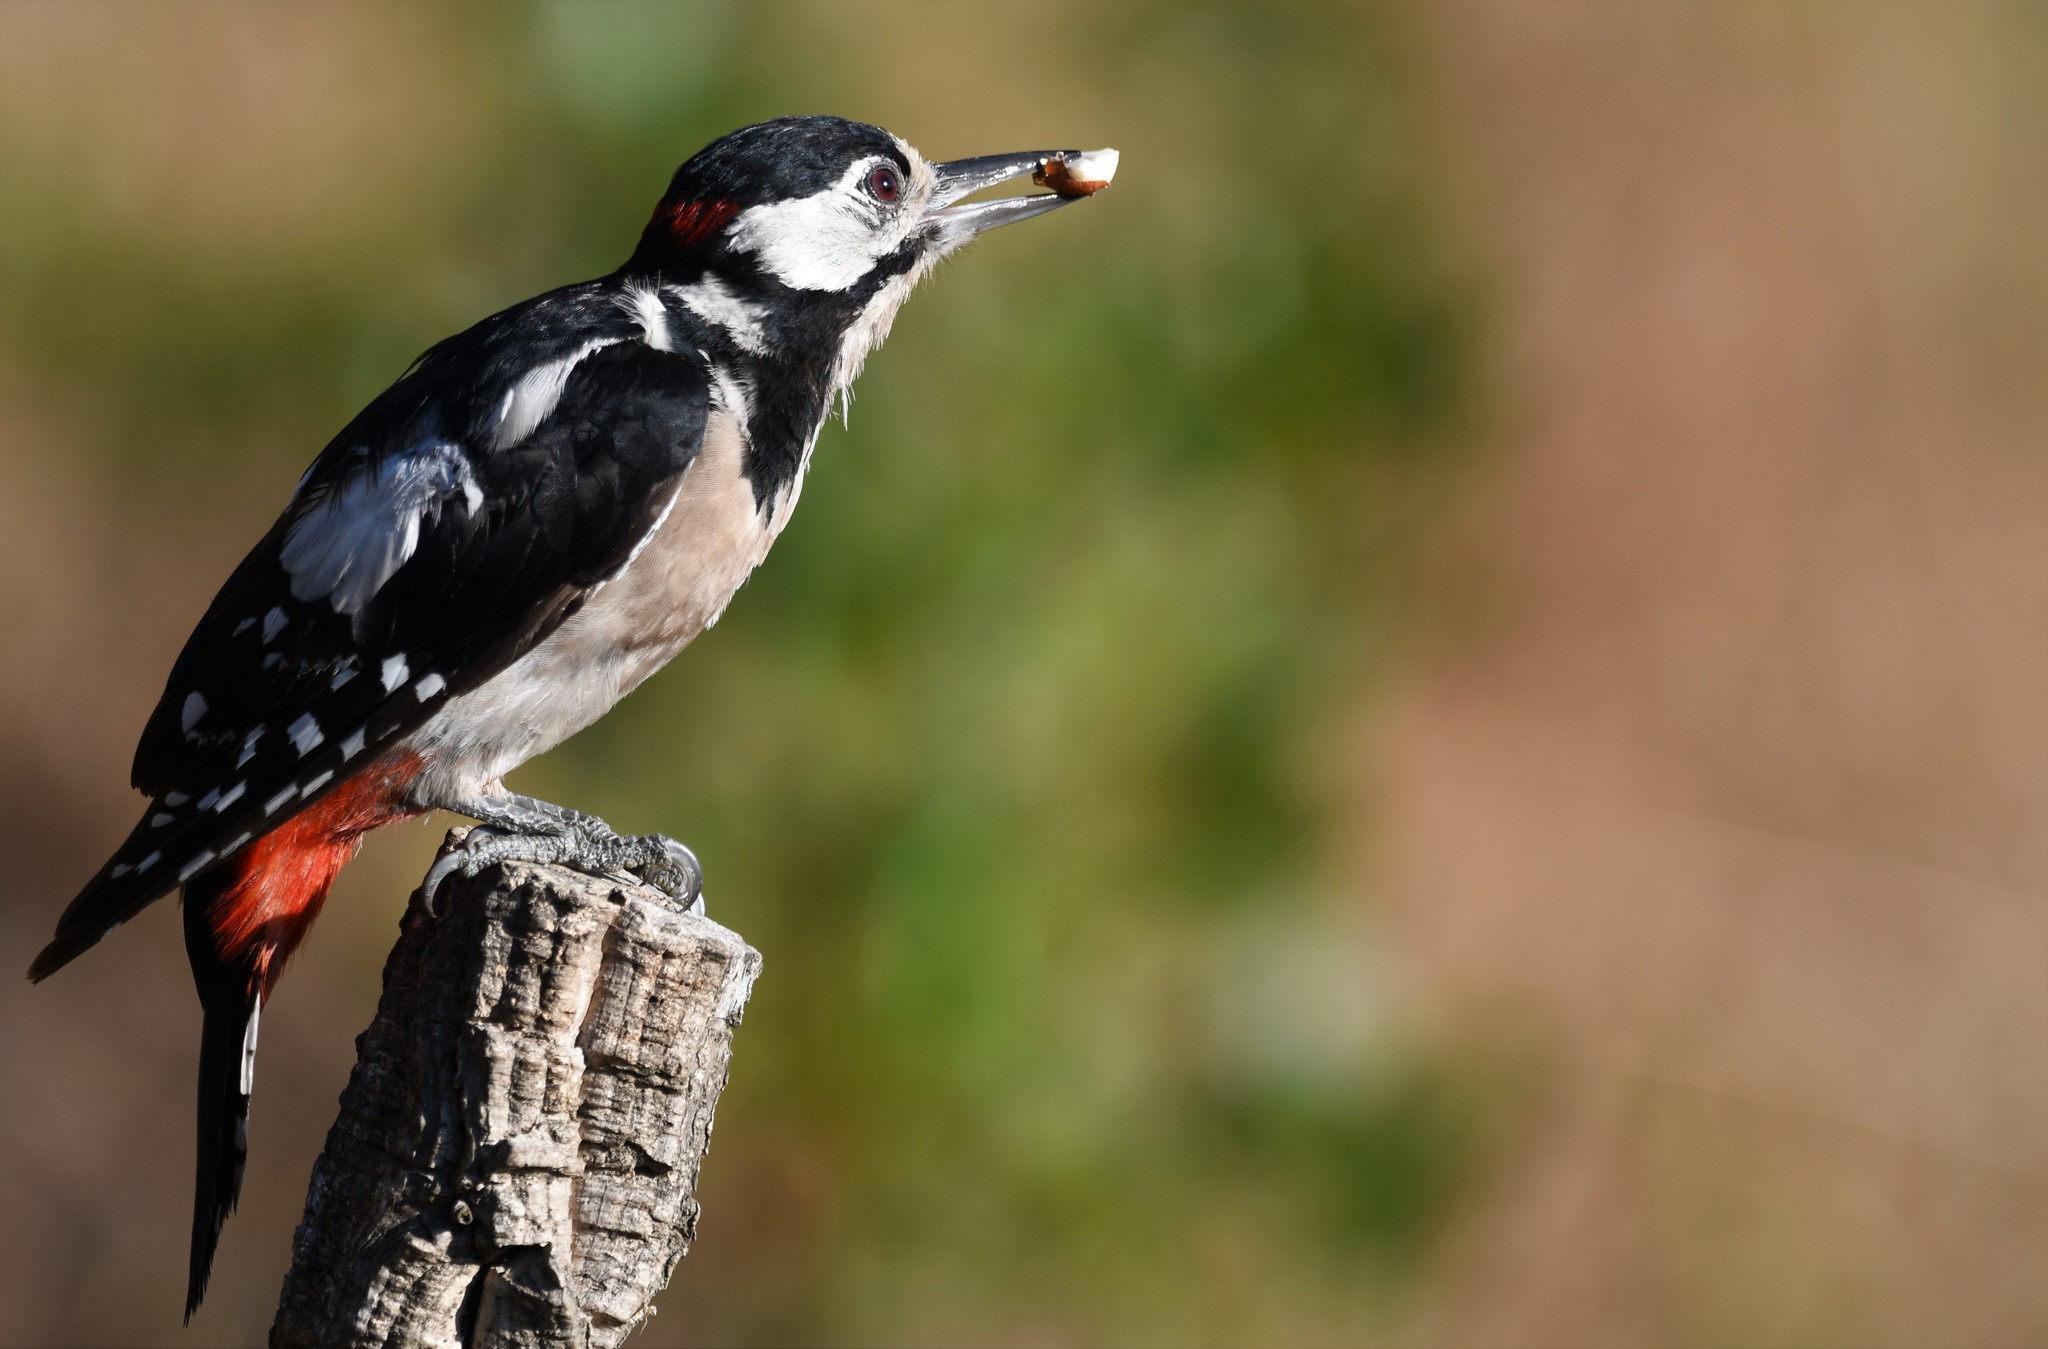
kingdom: Animalia
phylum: Chordata
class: Aves
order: Piciformes
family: Picidae
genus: Dendrocopos
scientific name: Dendrocopos major
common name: Great spotted woodpecker
